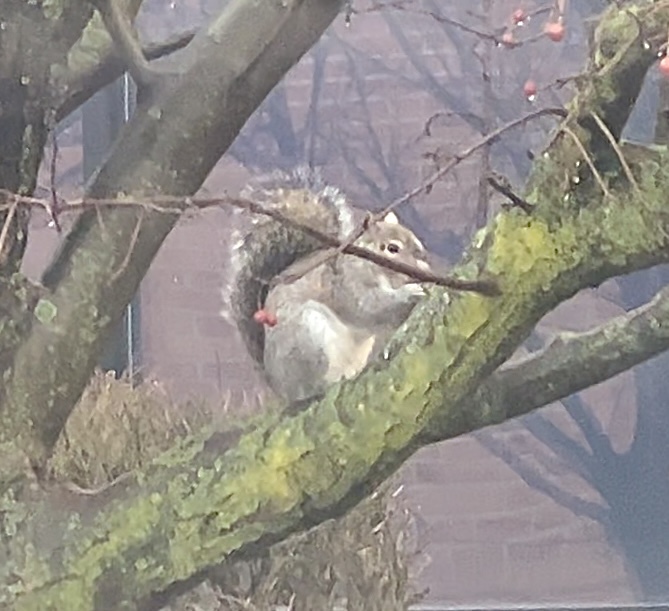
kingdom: Animalia
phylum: Chordata
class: Mammalia
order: Rodentia
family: Sciuridae
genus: Sciurus
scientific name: Sciurus carolinensis
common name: Eastern gray squirrel
